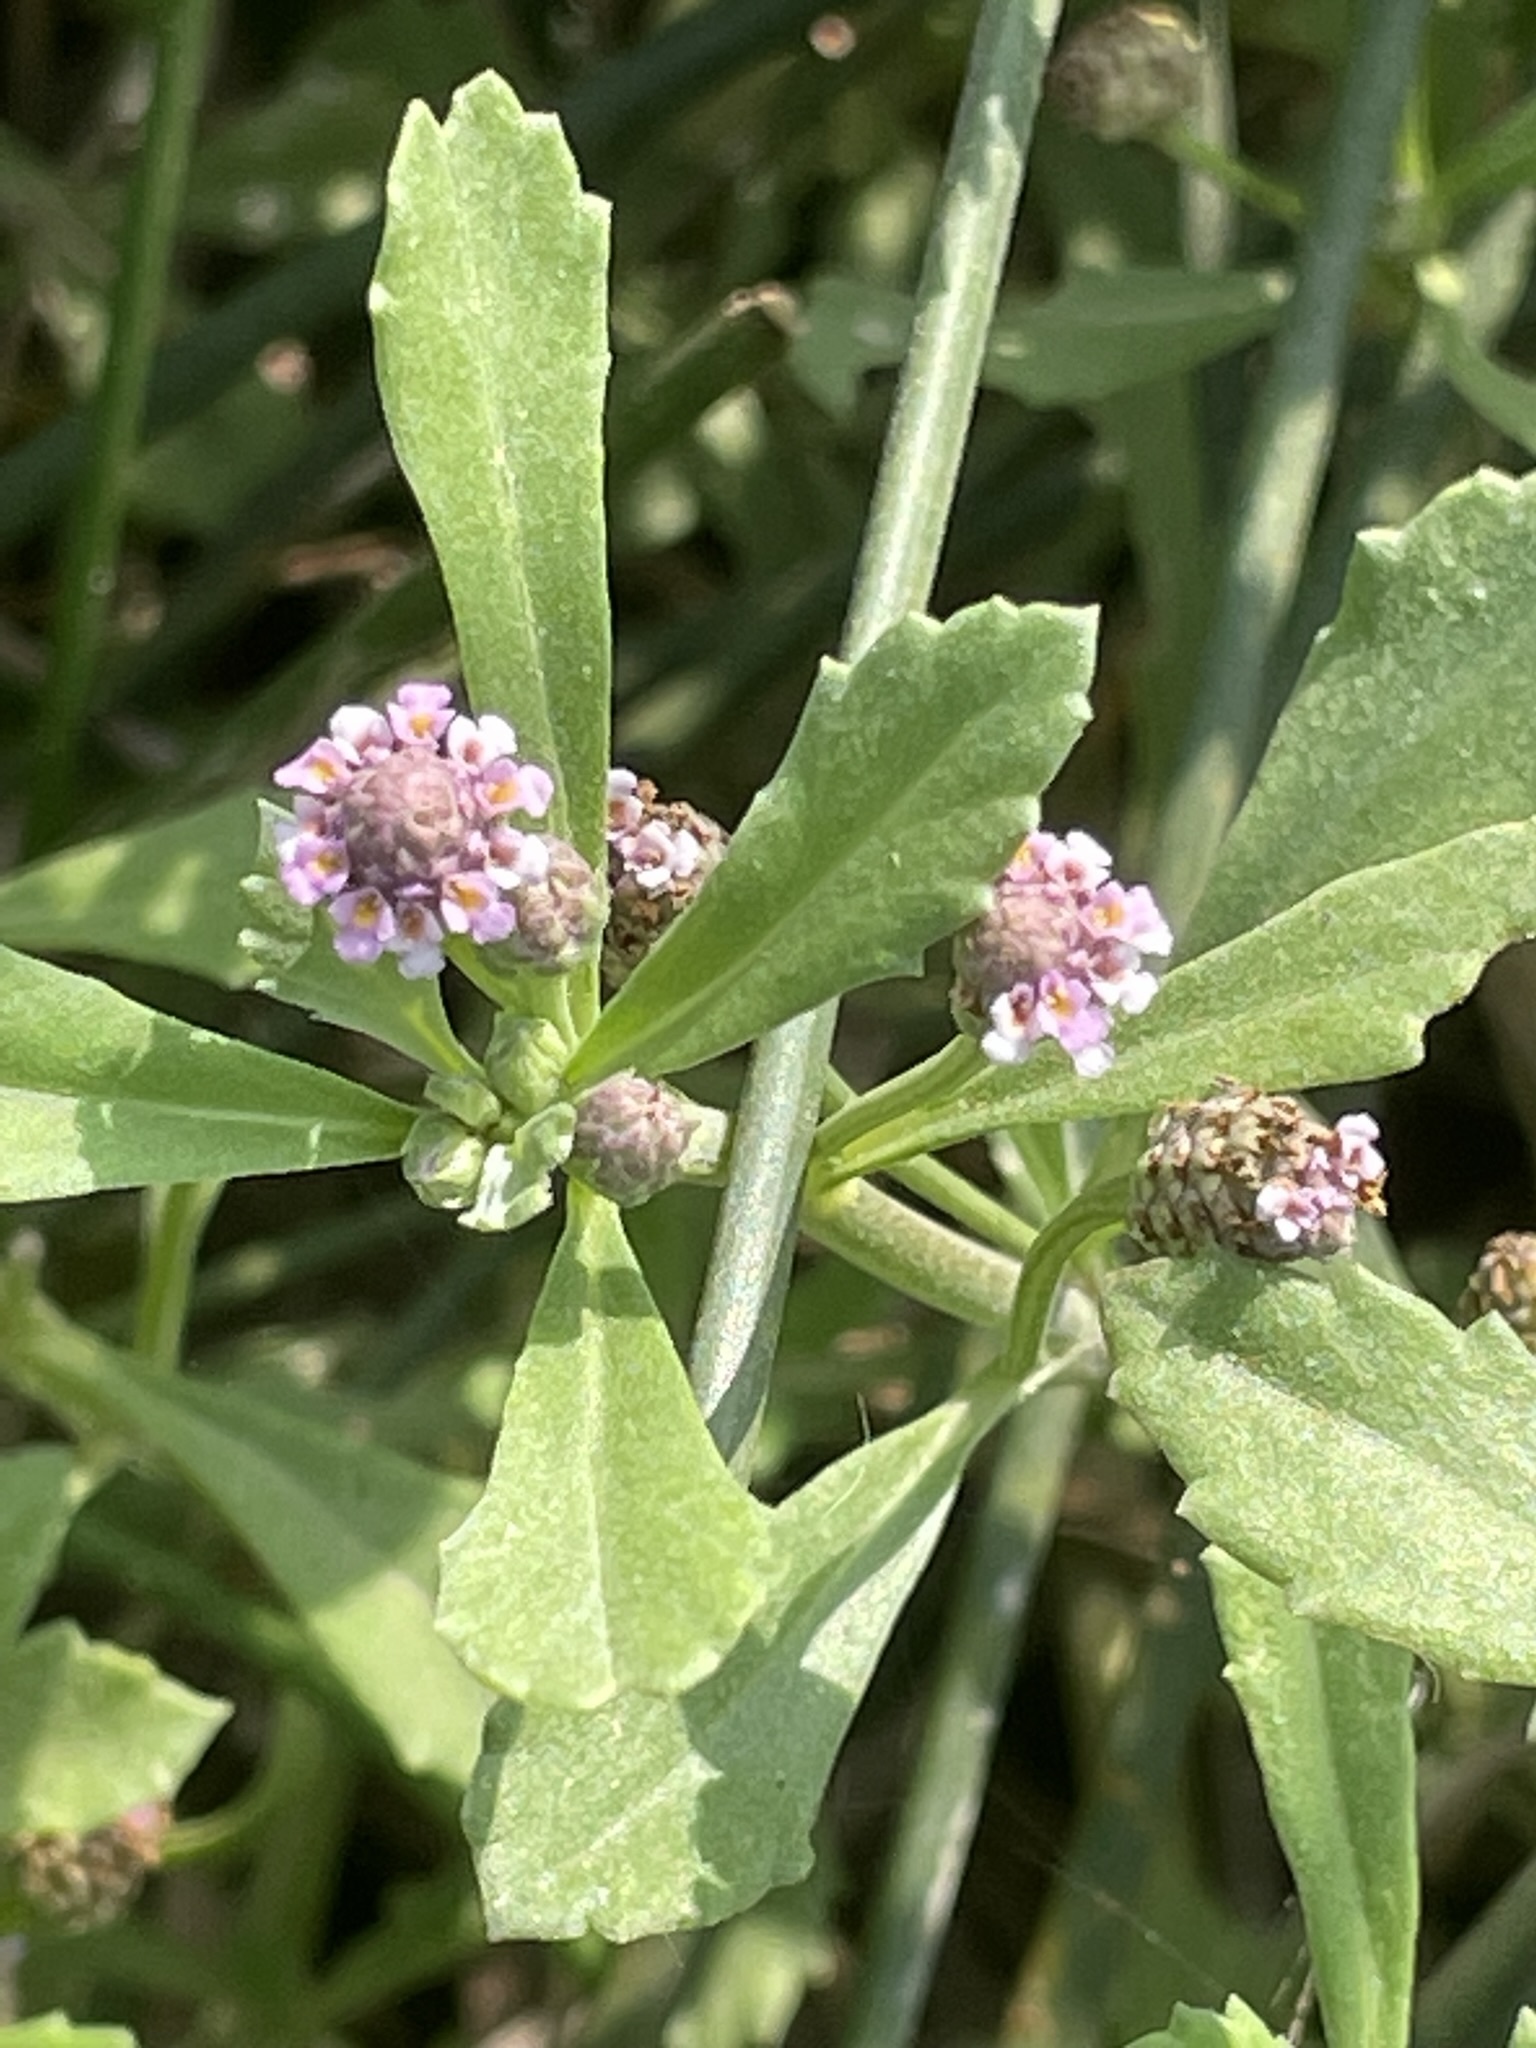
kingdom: Plantae
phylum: Tracheophyta
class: Magnoliopsida
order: Lamiales
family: Verbenaceae
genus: Phyla
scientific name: Phyla nodiflora
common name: Frogfruit
